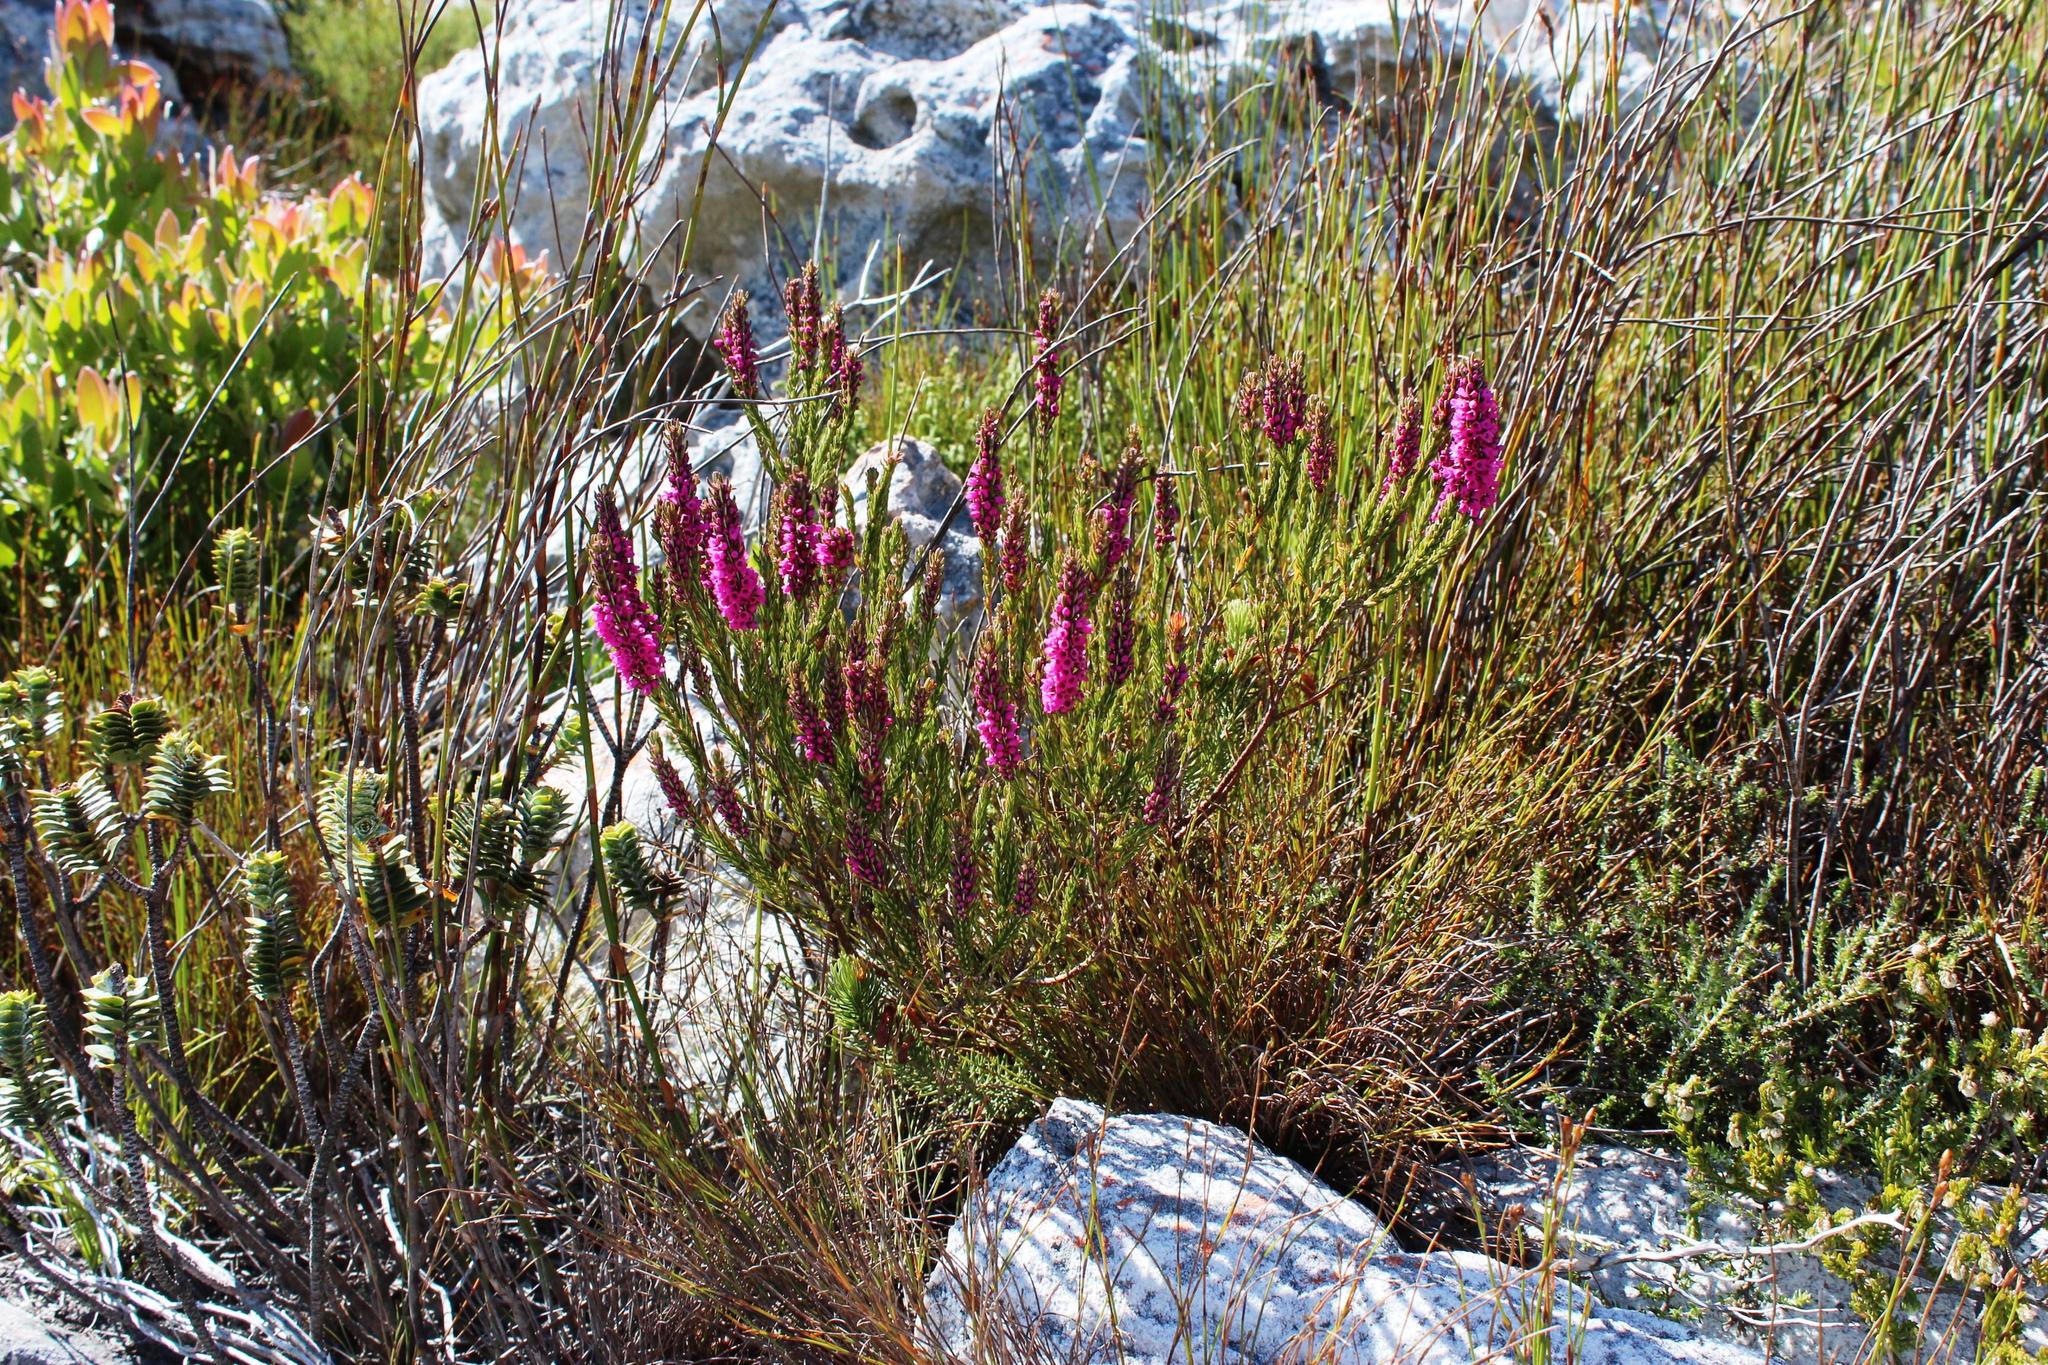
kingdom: Plantae
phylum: Tracheophyta
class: Magnoliopsida
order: Ericales
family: Ericaceae
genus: Erica
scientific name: Erica pulchella
